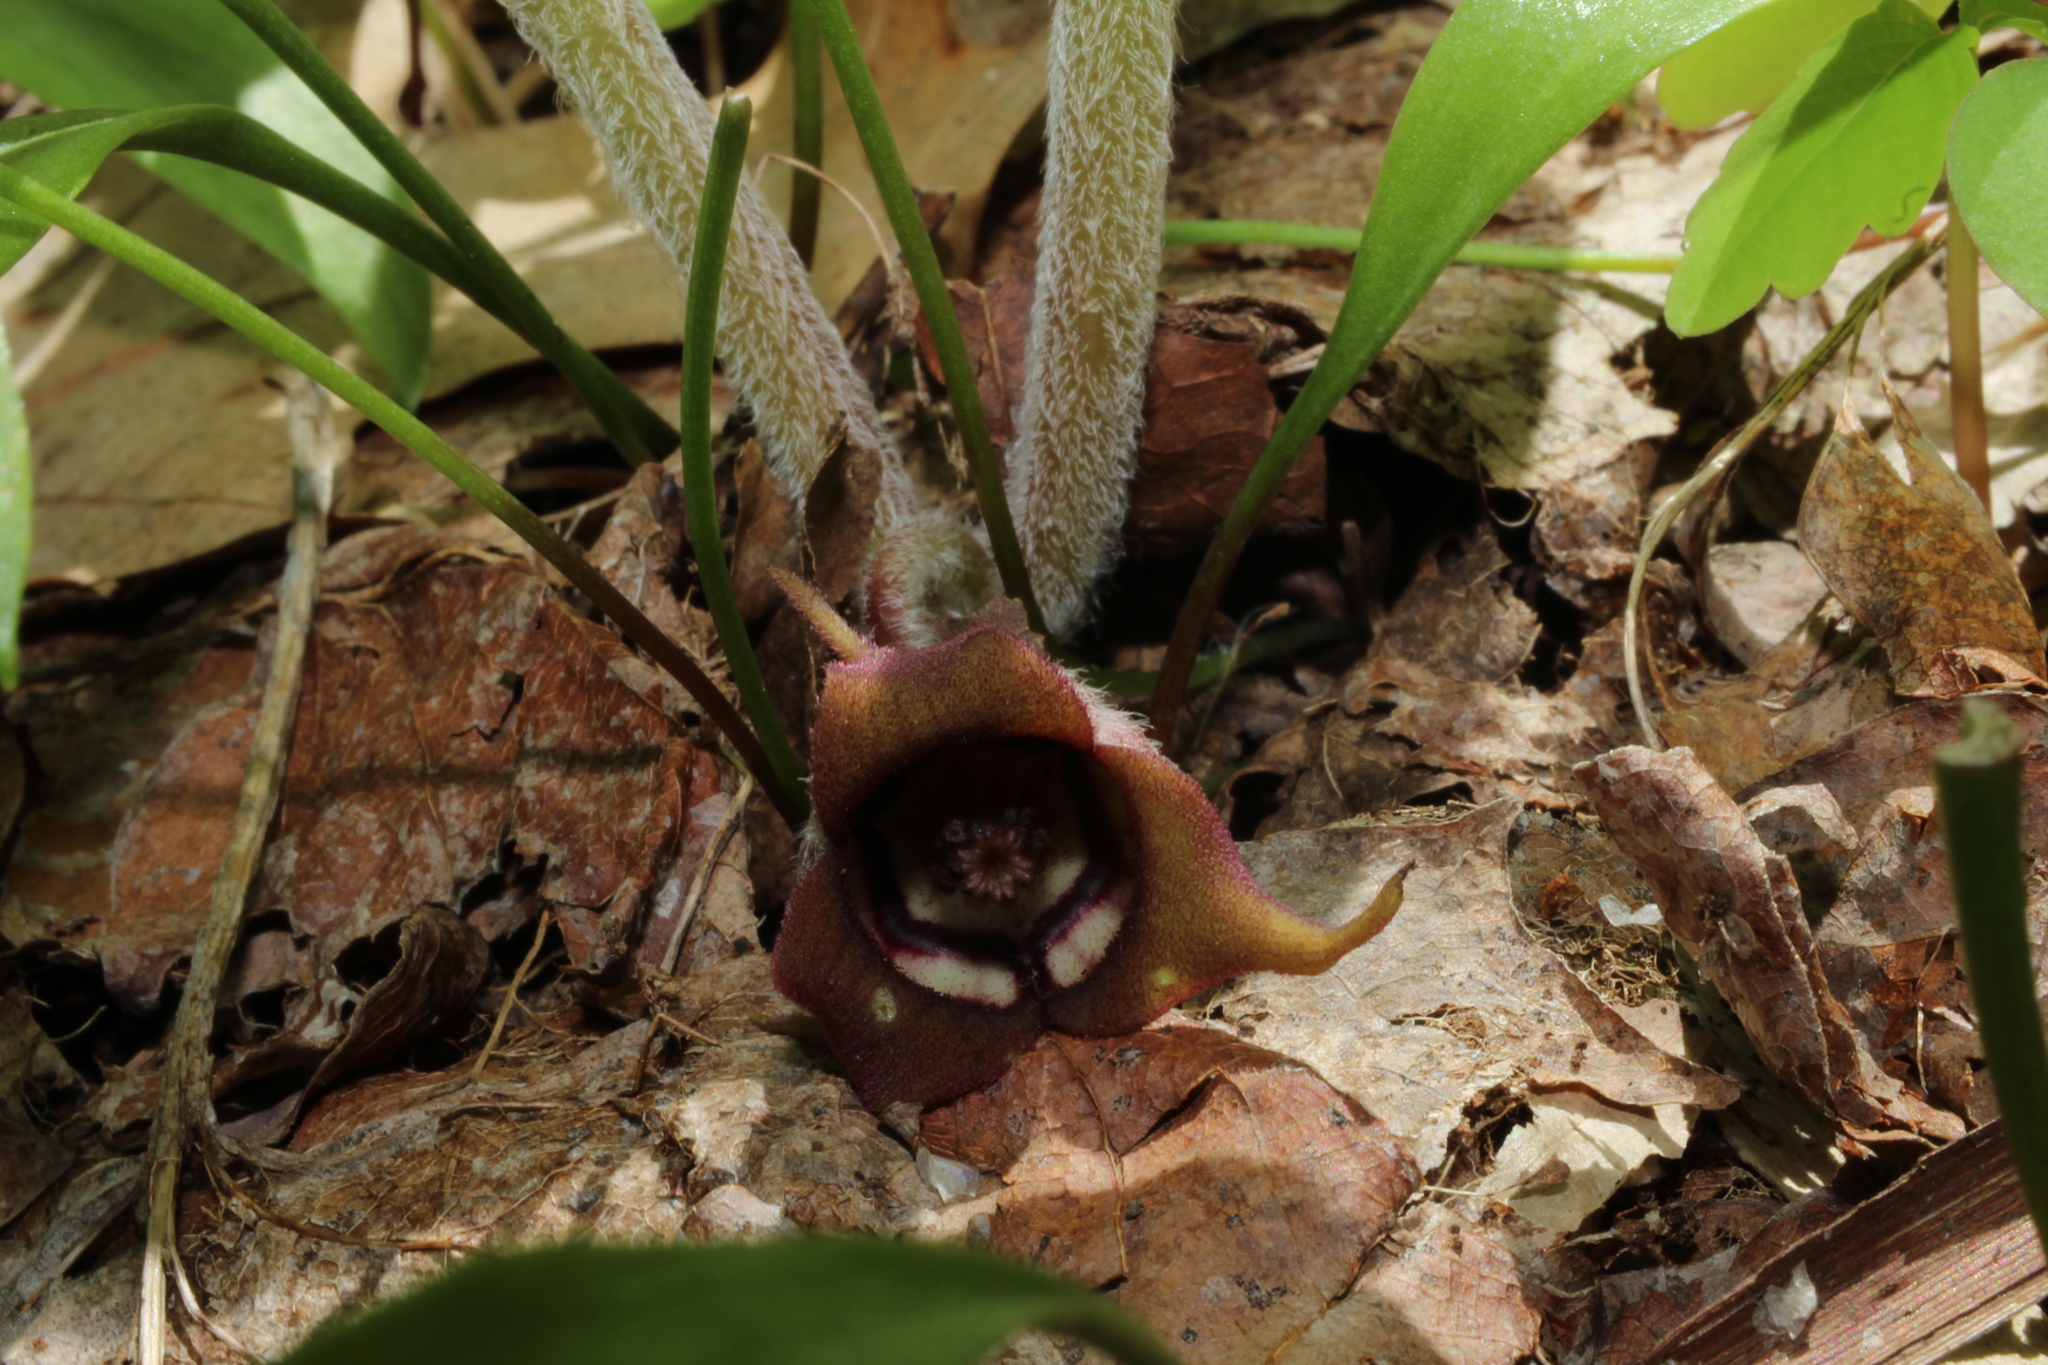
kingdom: Plantae
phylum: Tracheophyta
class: Magnoliopsida
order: Piperales
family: Aristolochiaceae
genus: Asarum
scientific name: Asarum canadense
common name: Wild ginger
